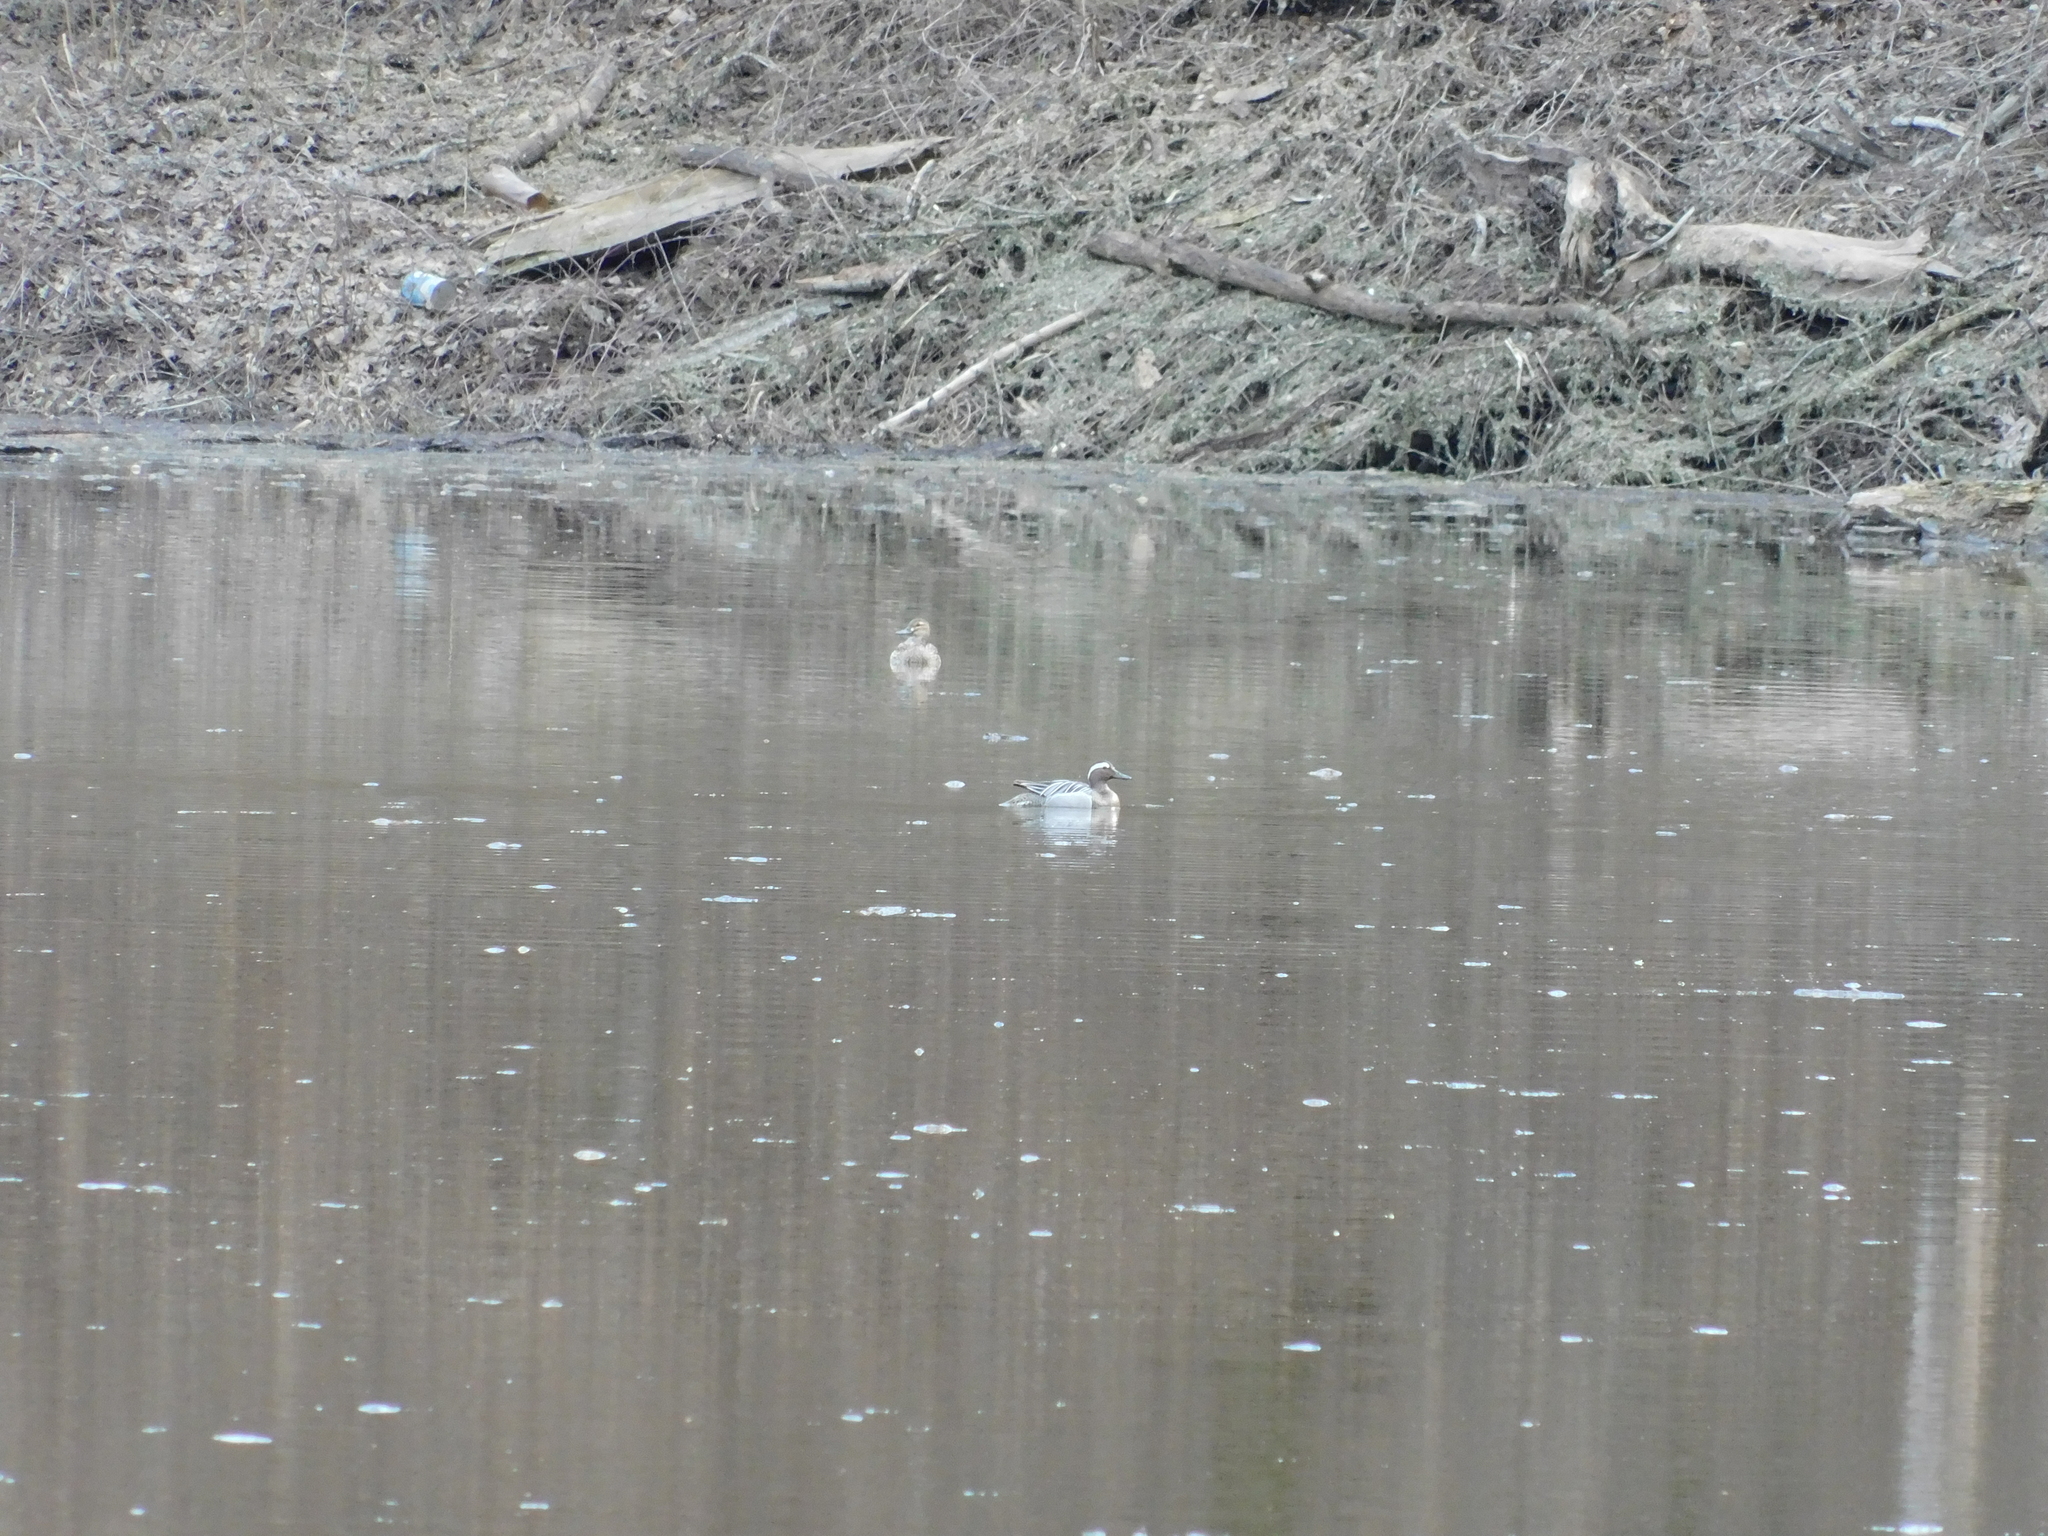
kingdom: Animalia
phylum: Chordata
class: Aves
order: Anseriformes
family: Anatidae
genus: Spatula
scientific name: Spatula querquedula
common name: Garganey
